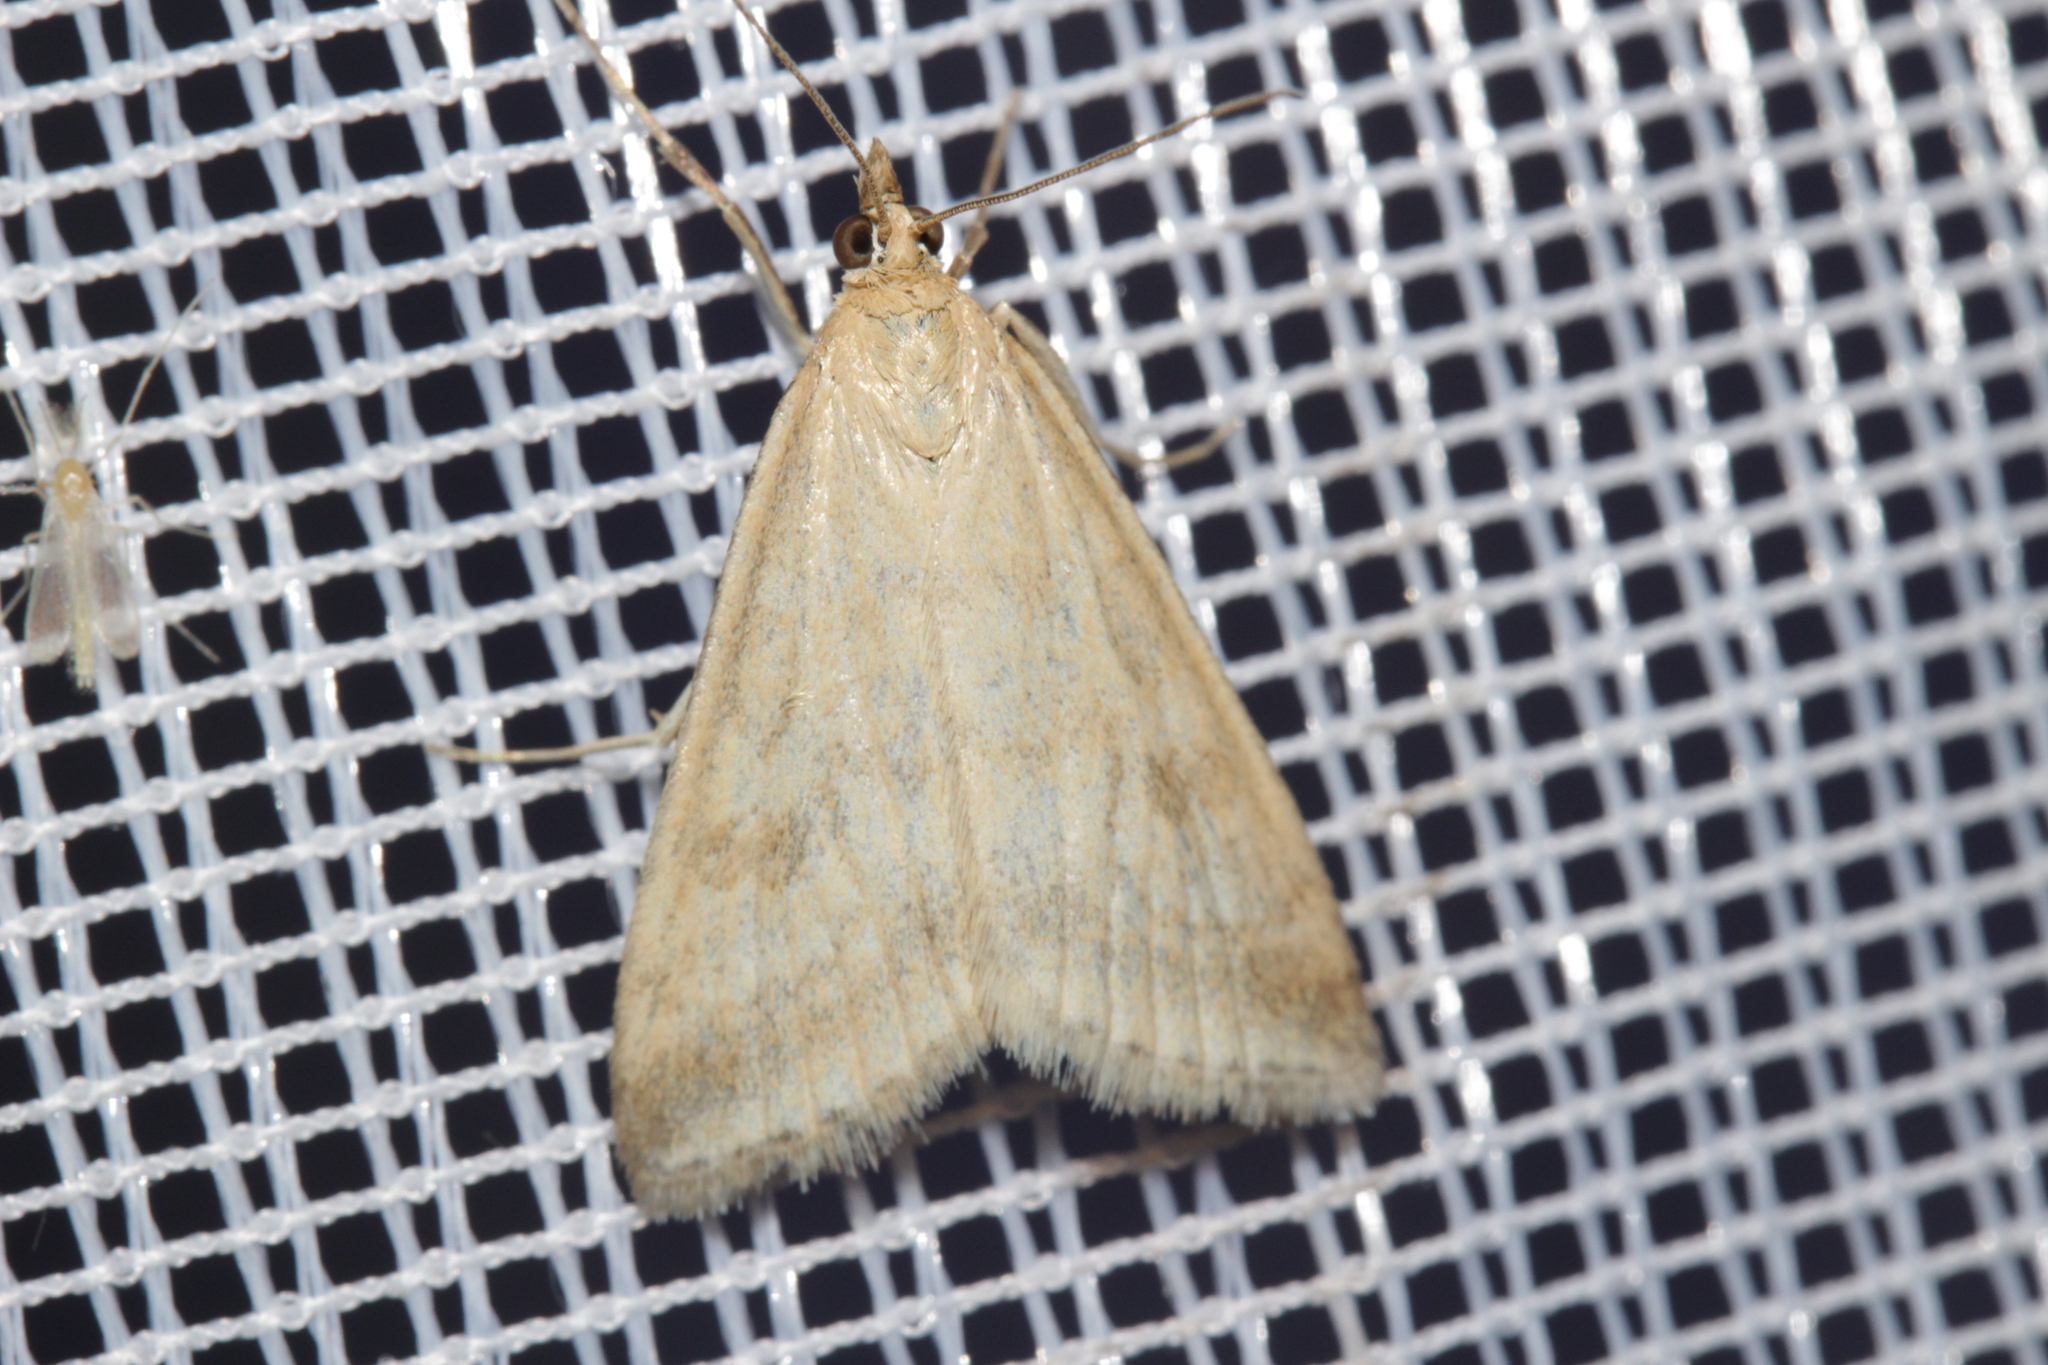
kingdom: Animalia
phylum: Arthropoda
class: Insecta
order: Lepidoptera
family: Crambidae
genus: Udea
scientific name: Udea nebulalis
